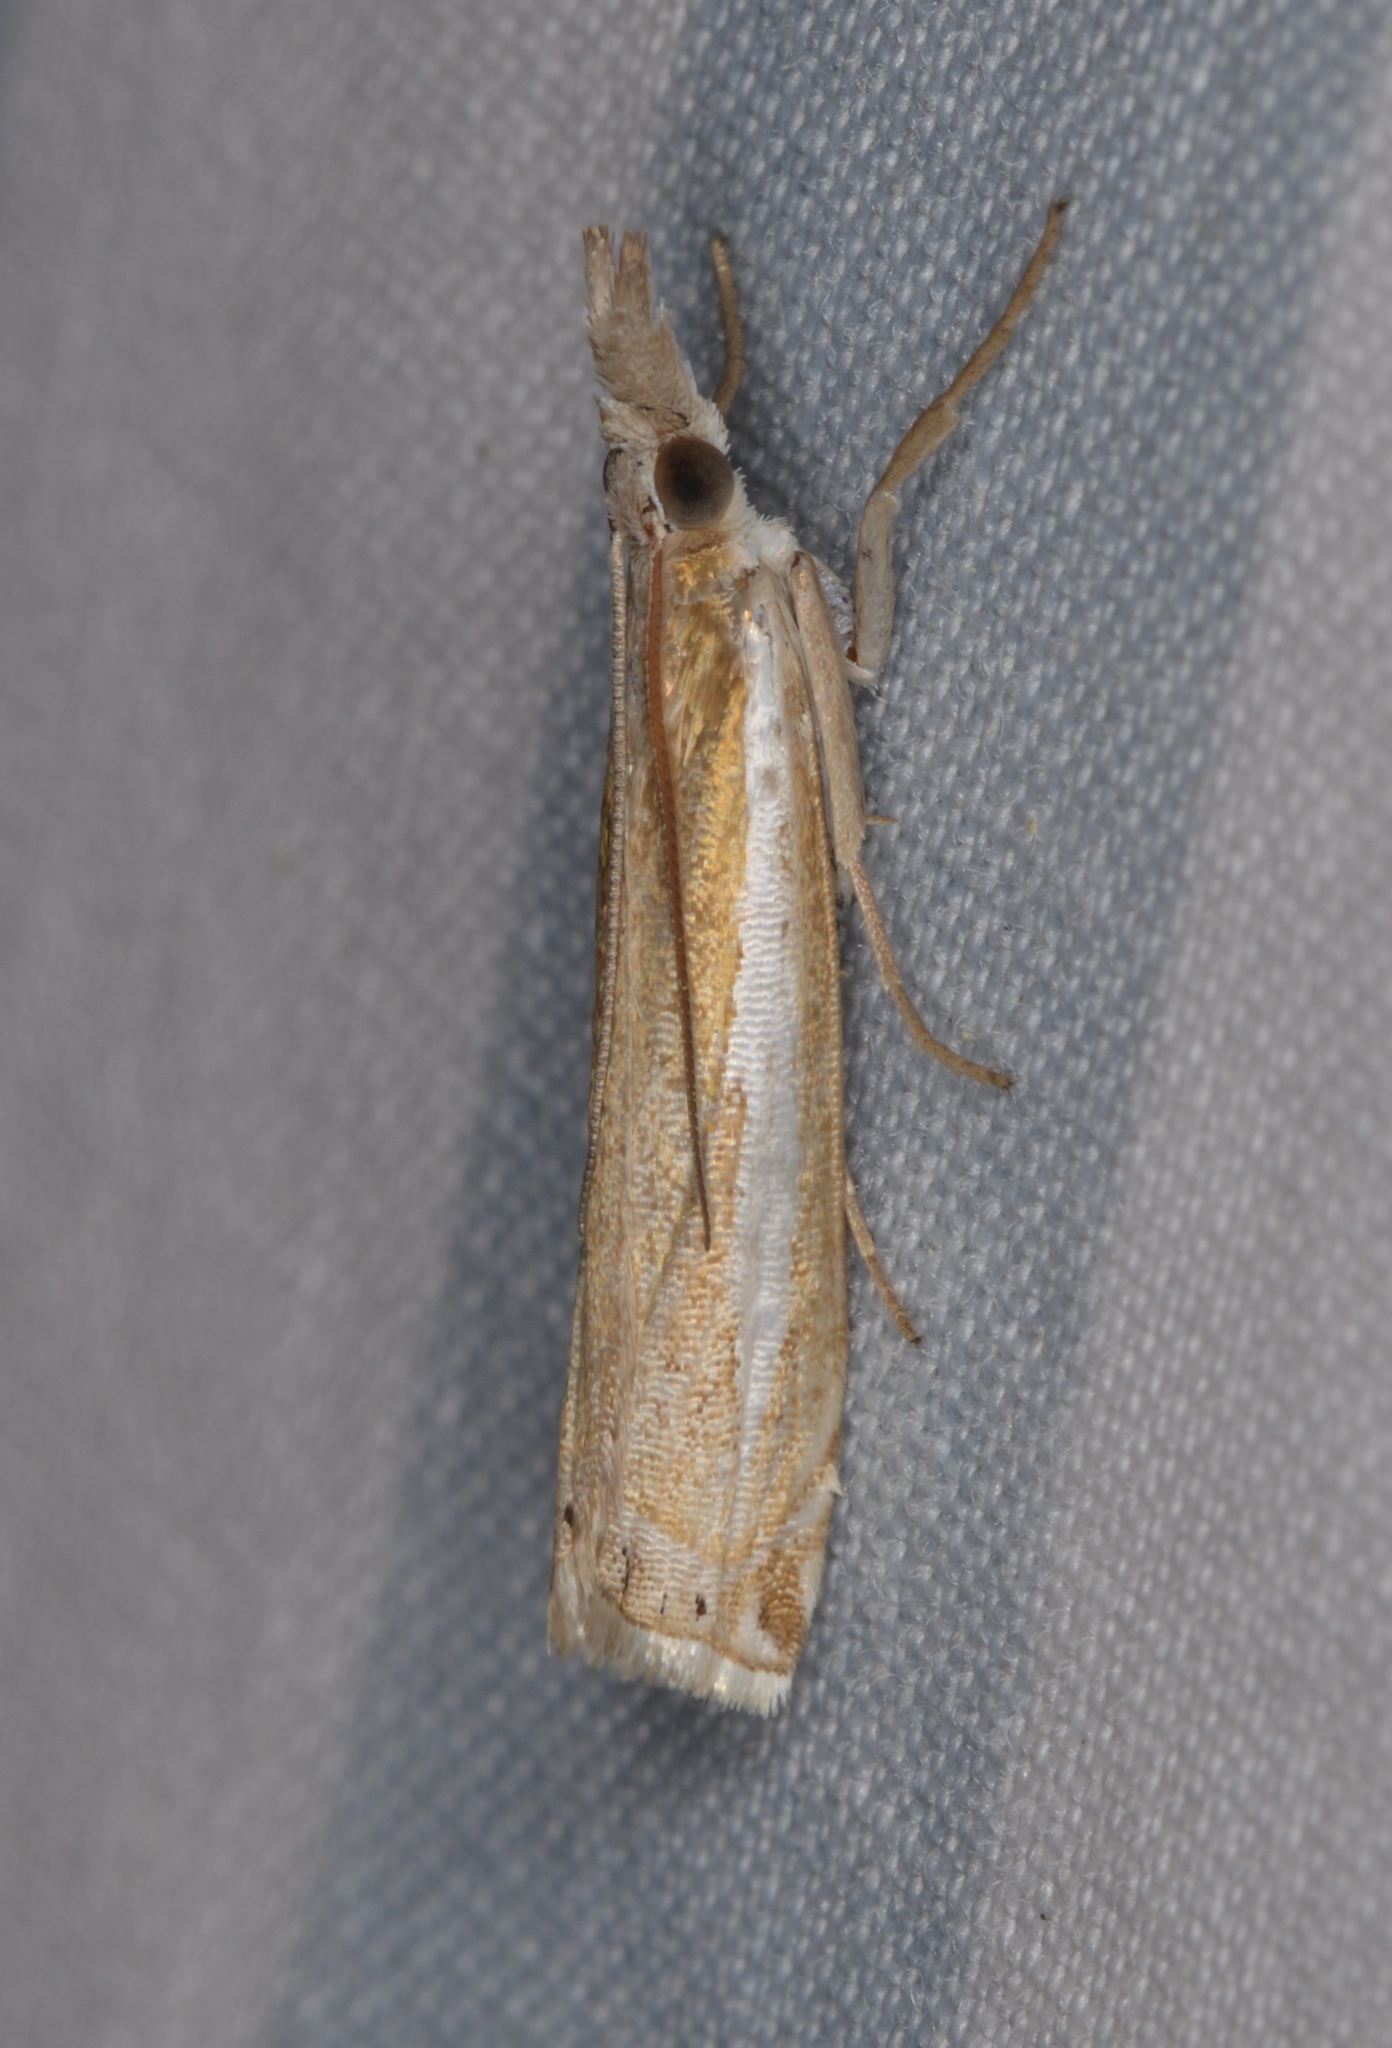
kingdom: Animalia
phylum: Arthropoda
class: Insecta
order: Lepidoptera
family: Crambidae
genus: Crambus
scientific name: Crambus praefectellus
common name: Common grass-veneer
